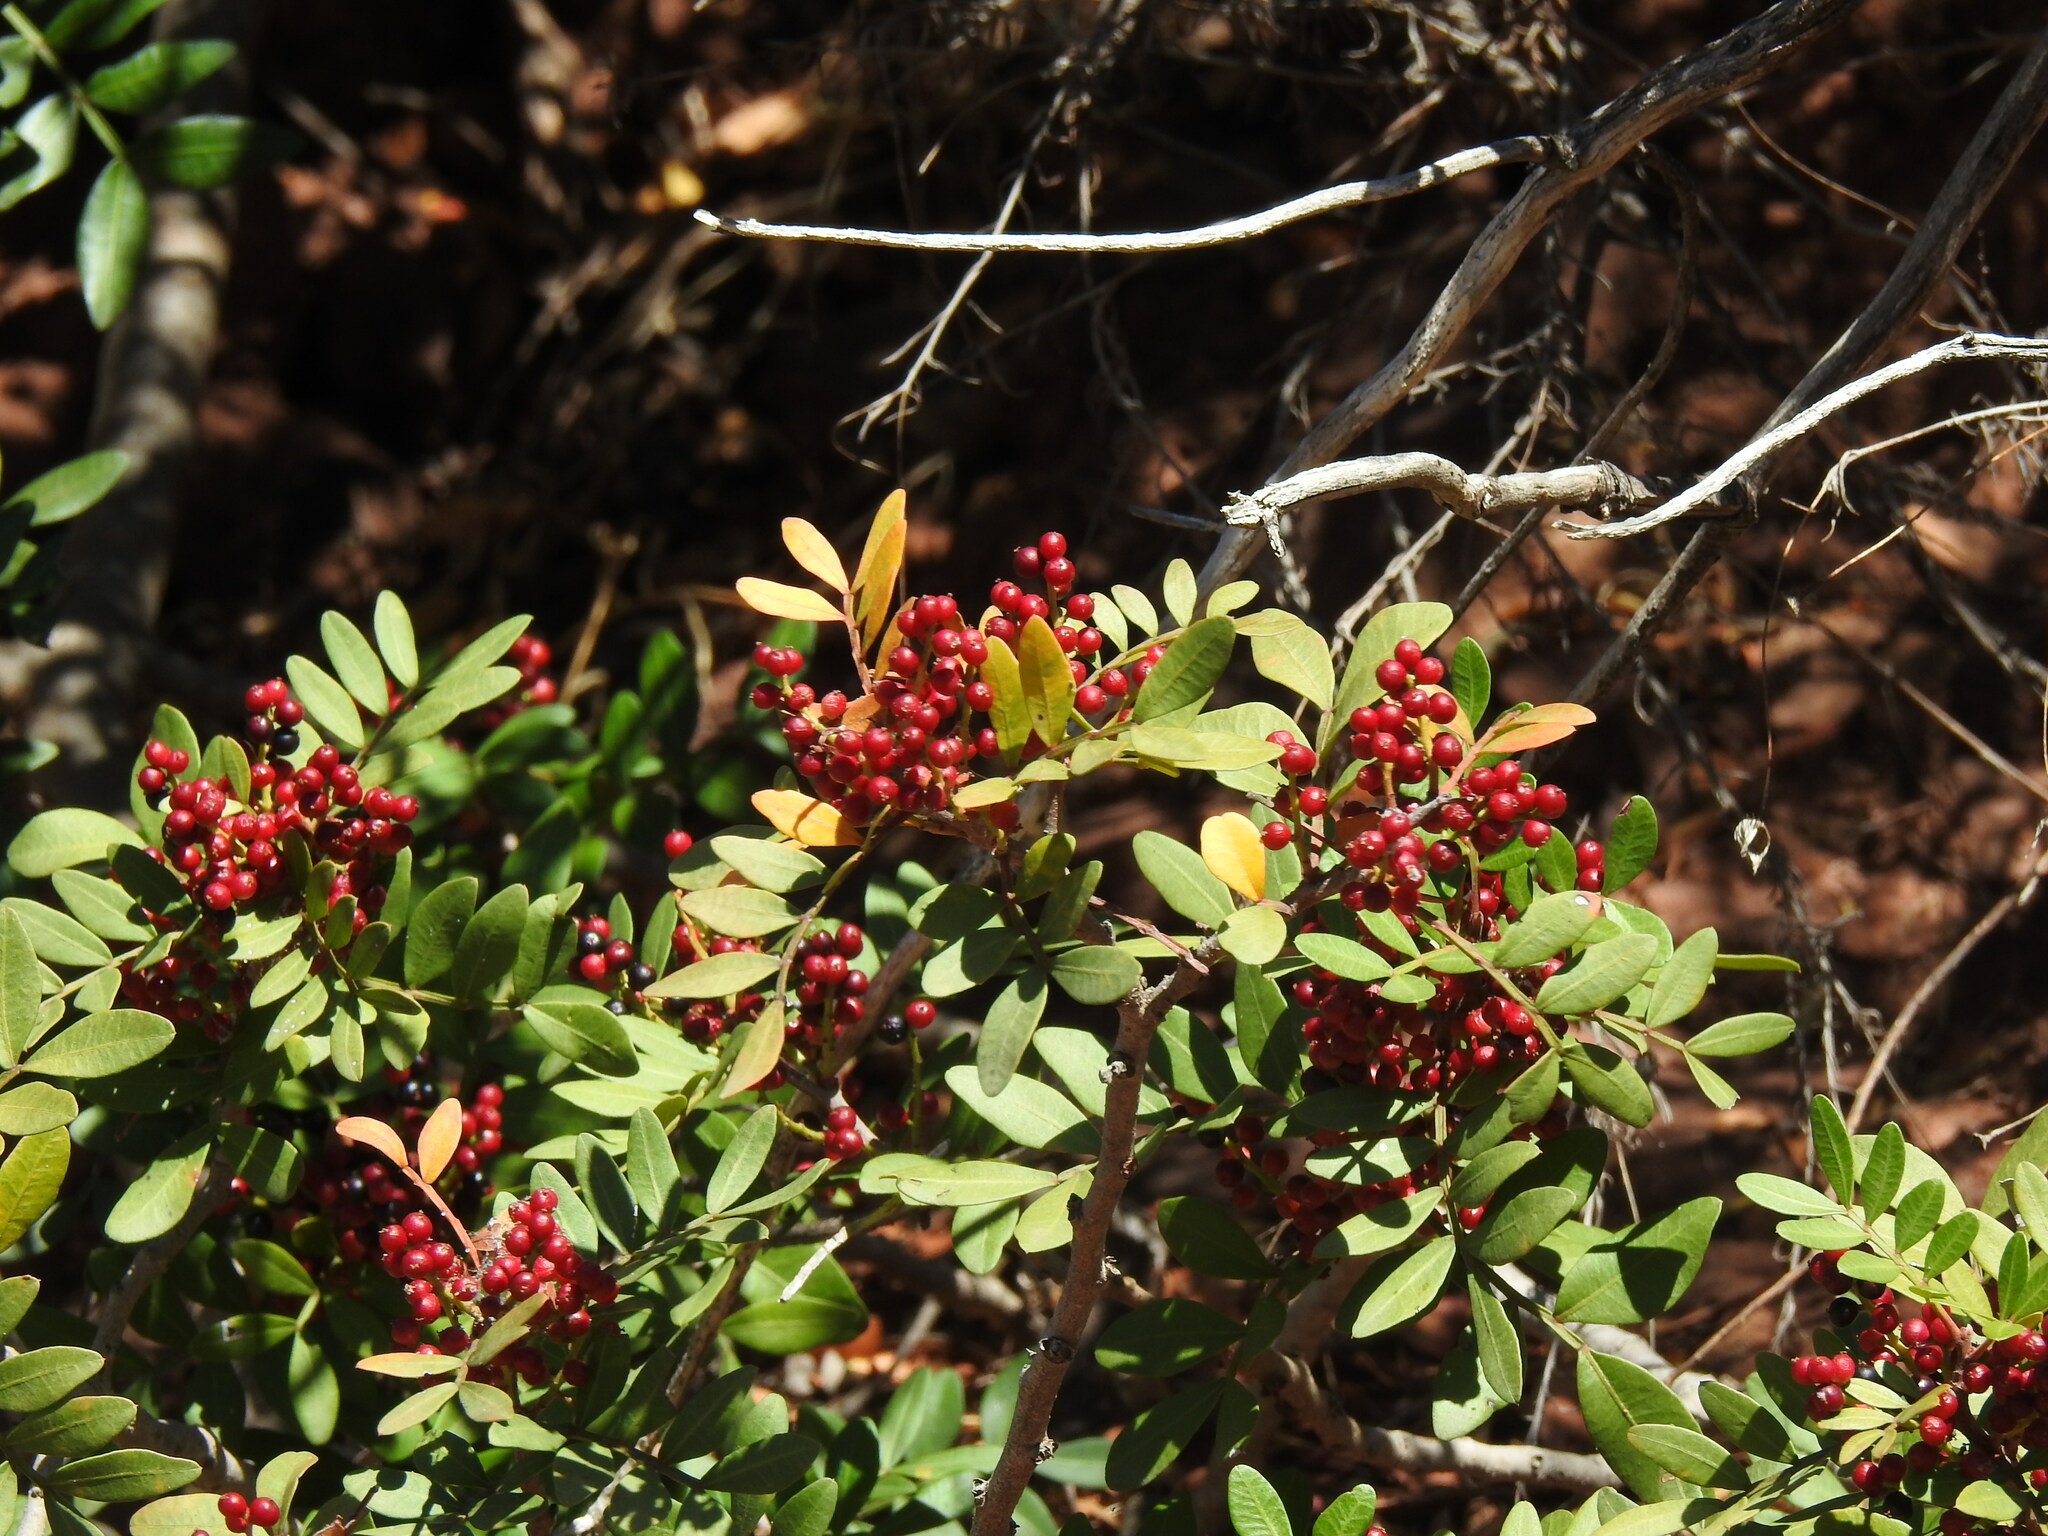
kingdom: Plantae
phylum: Tracheophyta
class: Magnoliopsida
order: Sapindales
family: Anacardiaceae
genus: Pistacia
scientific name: Pistacia lentiscus
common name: Lentisk
